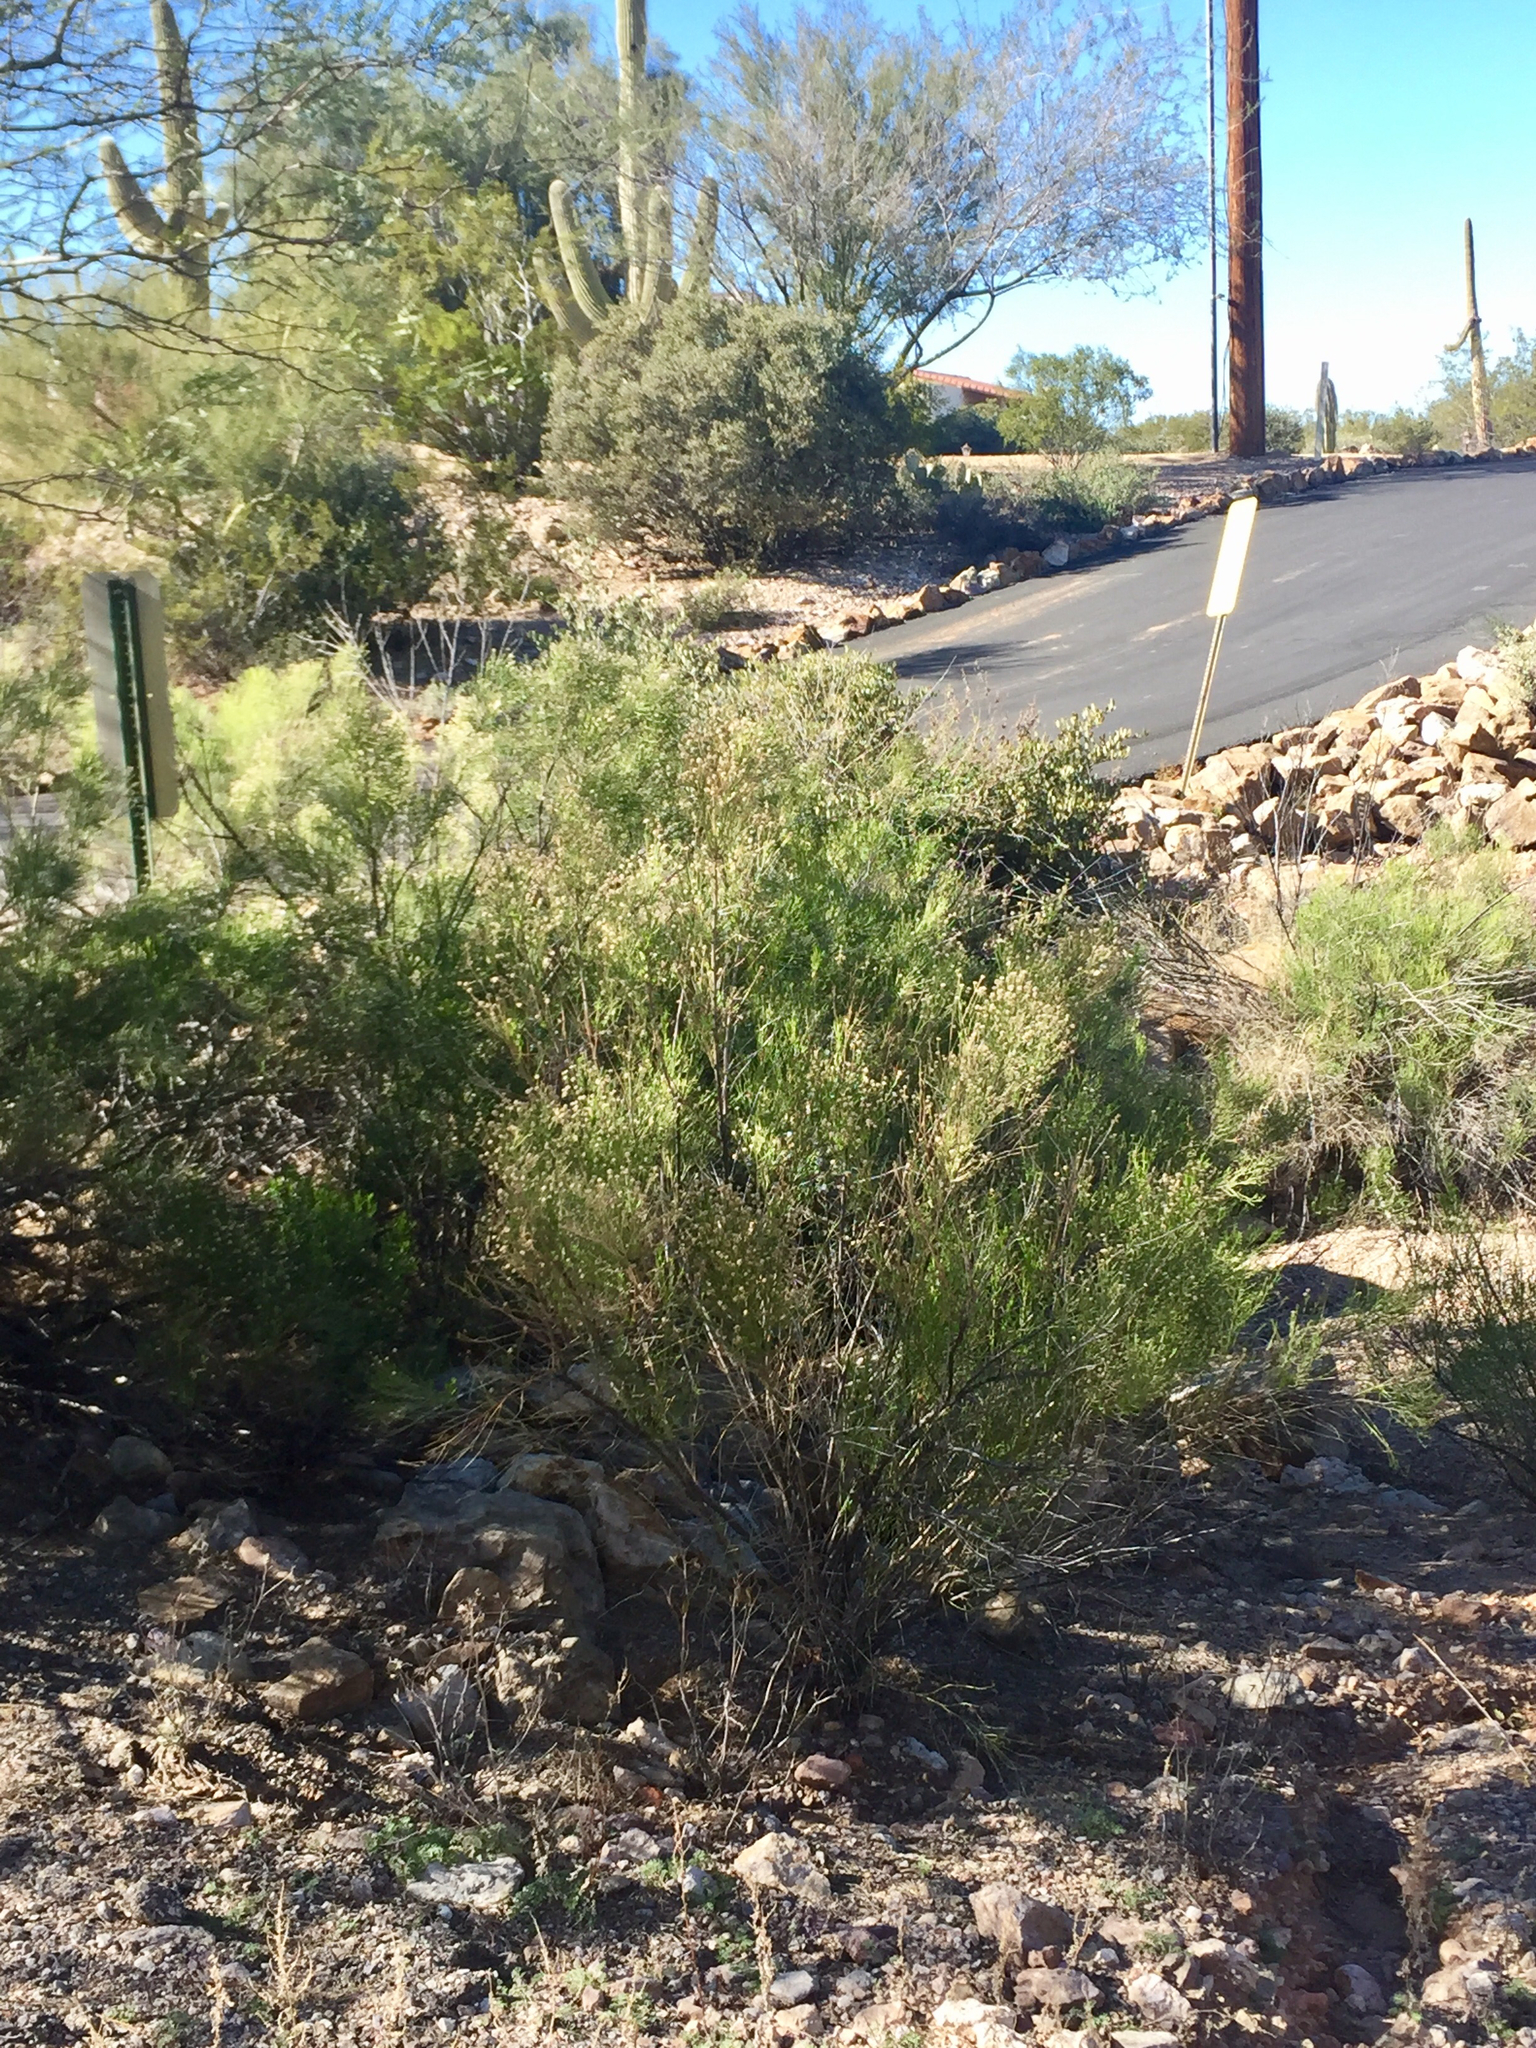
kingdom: Plantae
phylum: Tracheophyta
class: Magnoliopsida
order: Asterales
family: Asteraceae
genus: Baccharis
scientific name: Baccharis sarothroides
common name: Desert-broom
